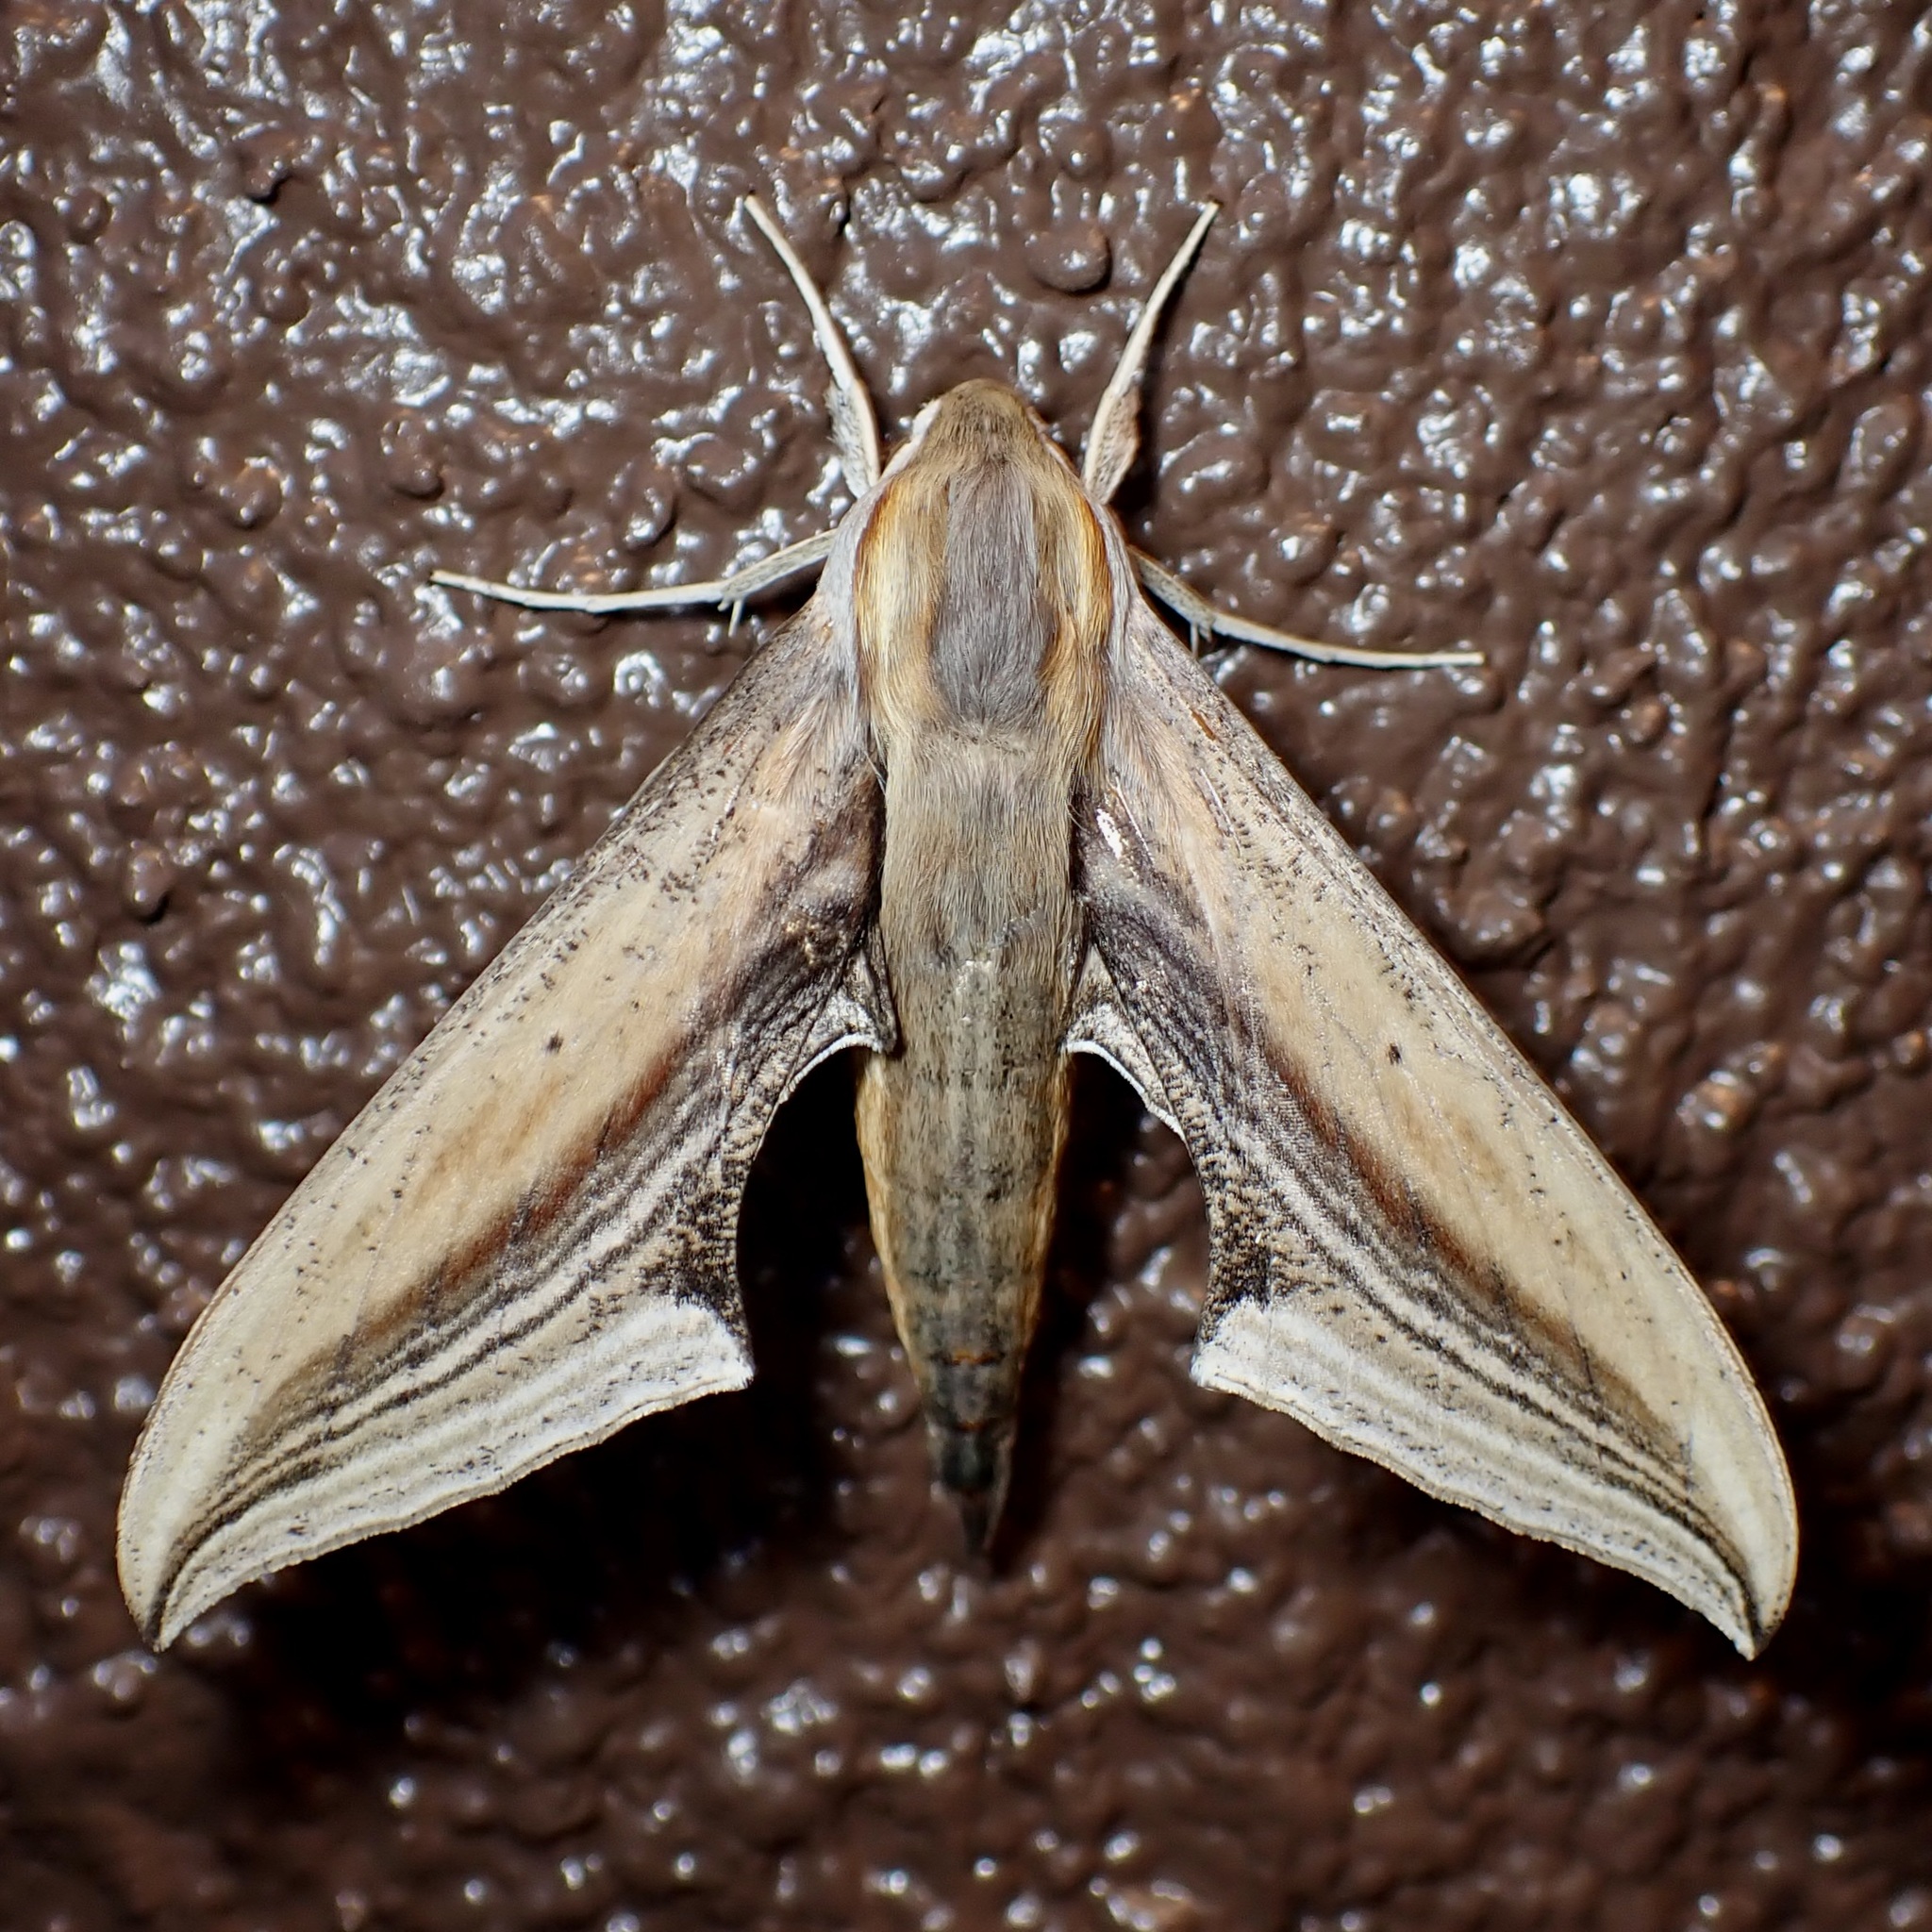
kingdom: Animalia
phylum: Arthropoda
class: Insecta
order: Lepidoptera
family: Sphingidae
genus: Xylophanes
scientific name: Xylophanes falco
